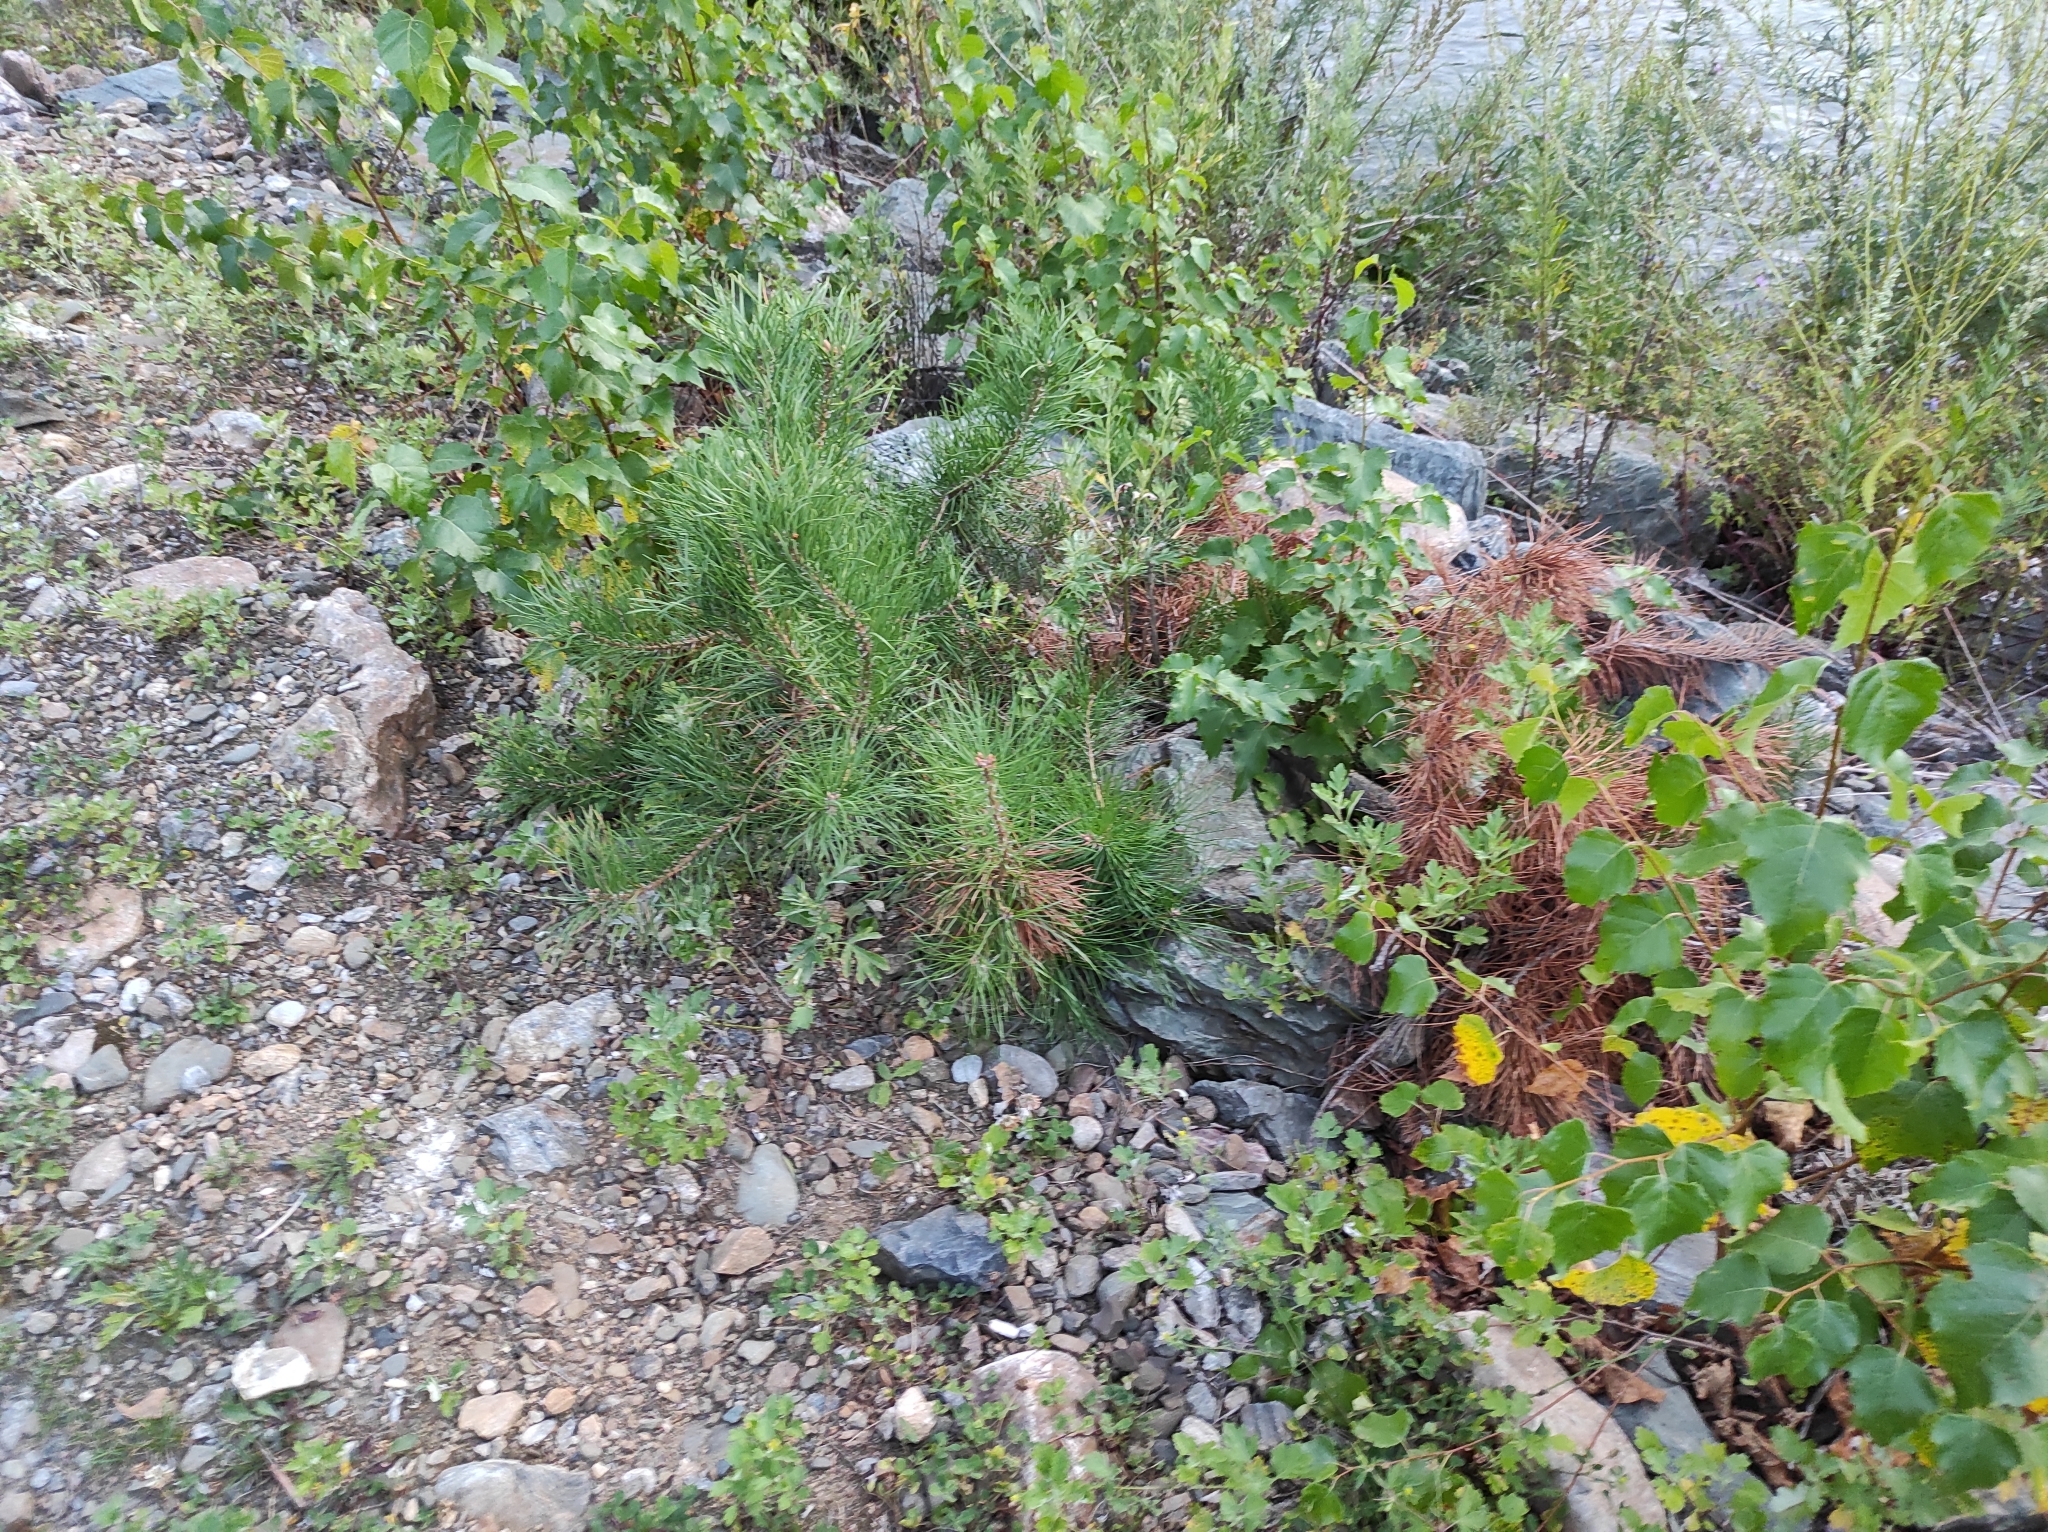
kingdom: Plantae
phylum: Tracheophyta
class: Pinopsida
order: Pinales
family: Pinaceae
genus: Pinus
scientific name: Pinus sylvestris
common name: Scots pine
